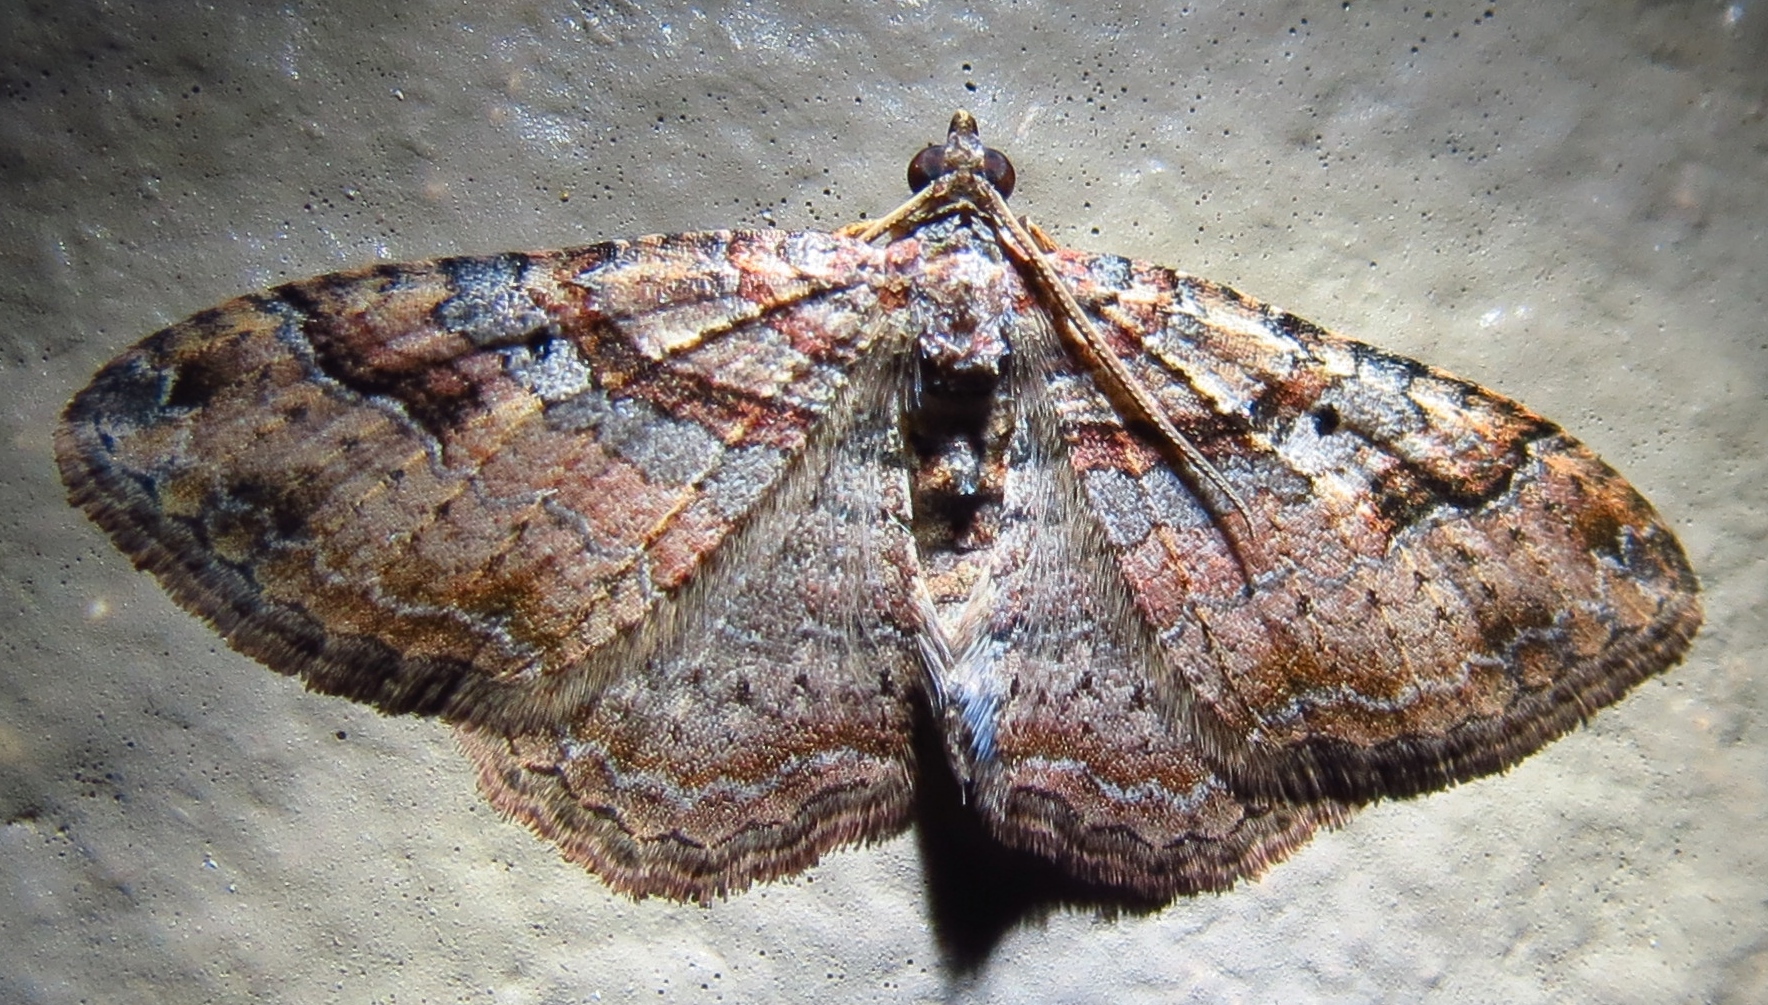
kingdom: Animalia
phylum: Arthropoda
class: Insecta
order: Lepidoptera
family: Geometridae
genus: Costaconvexa
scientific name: Costaconvexa centrostrigaria
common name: Bent-line carpet
